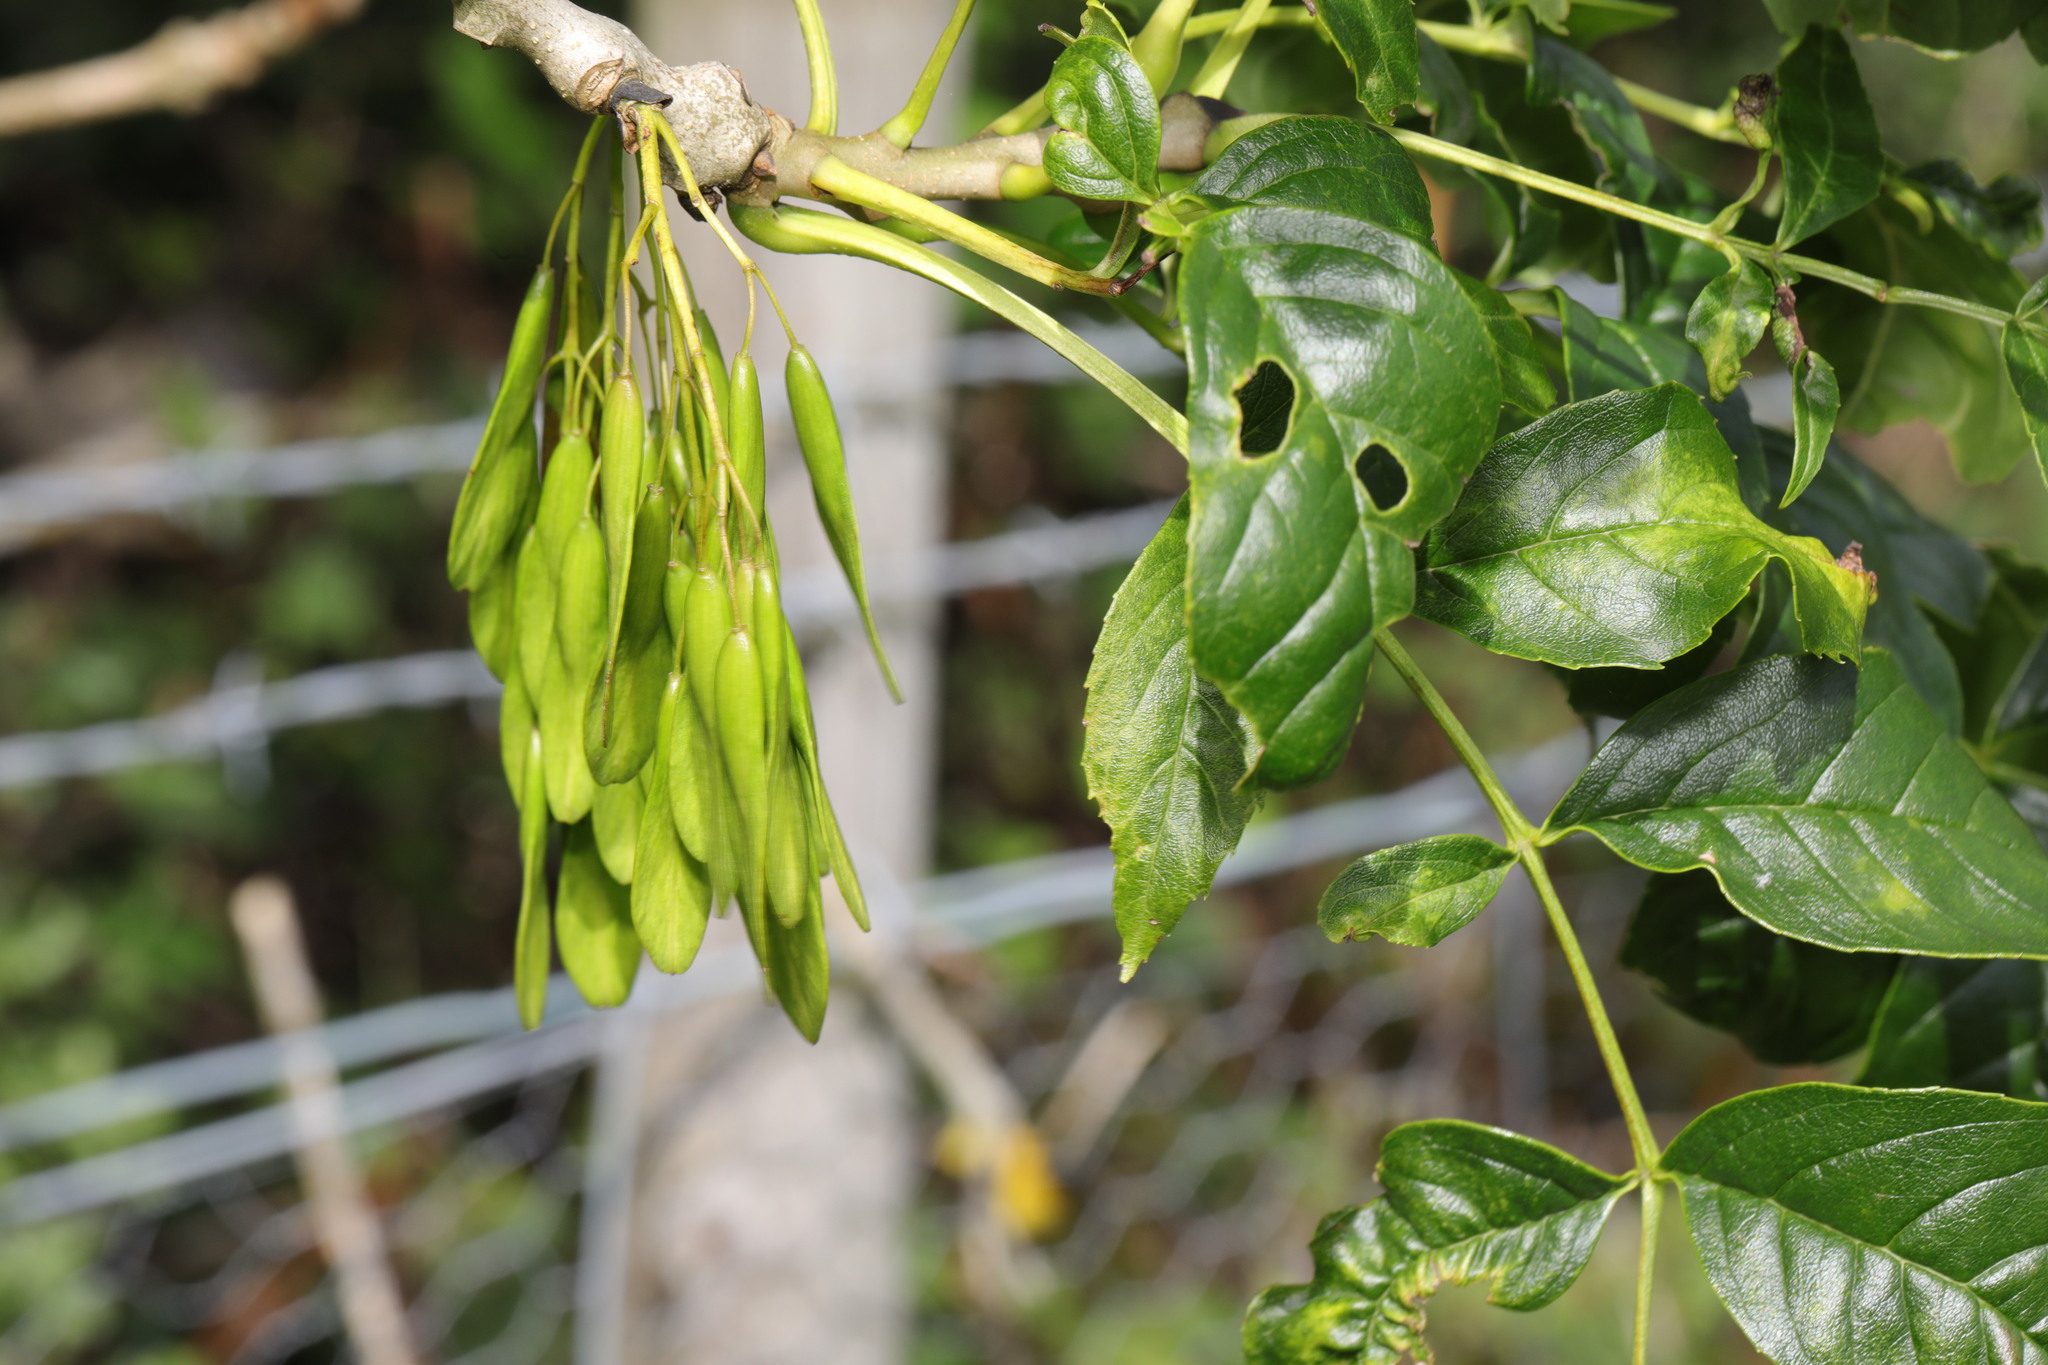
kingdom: Plantae
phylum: Tracheophyta
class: Magnoliopsida
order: Lamiales
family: Oleaceae
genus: Fraxinus
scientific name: Fraxinus excelsior
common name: European ash
